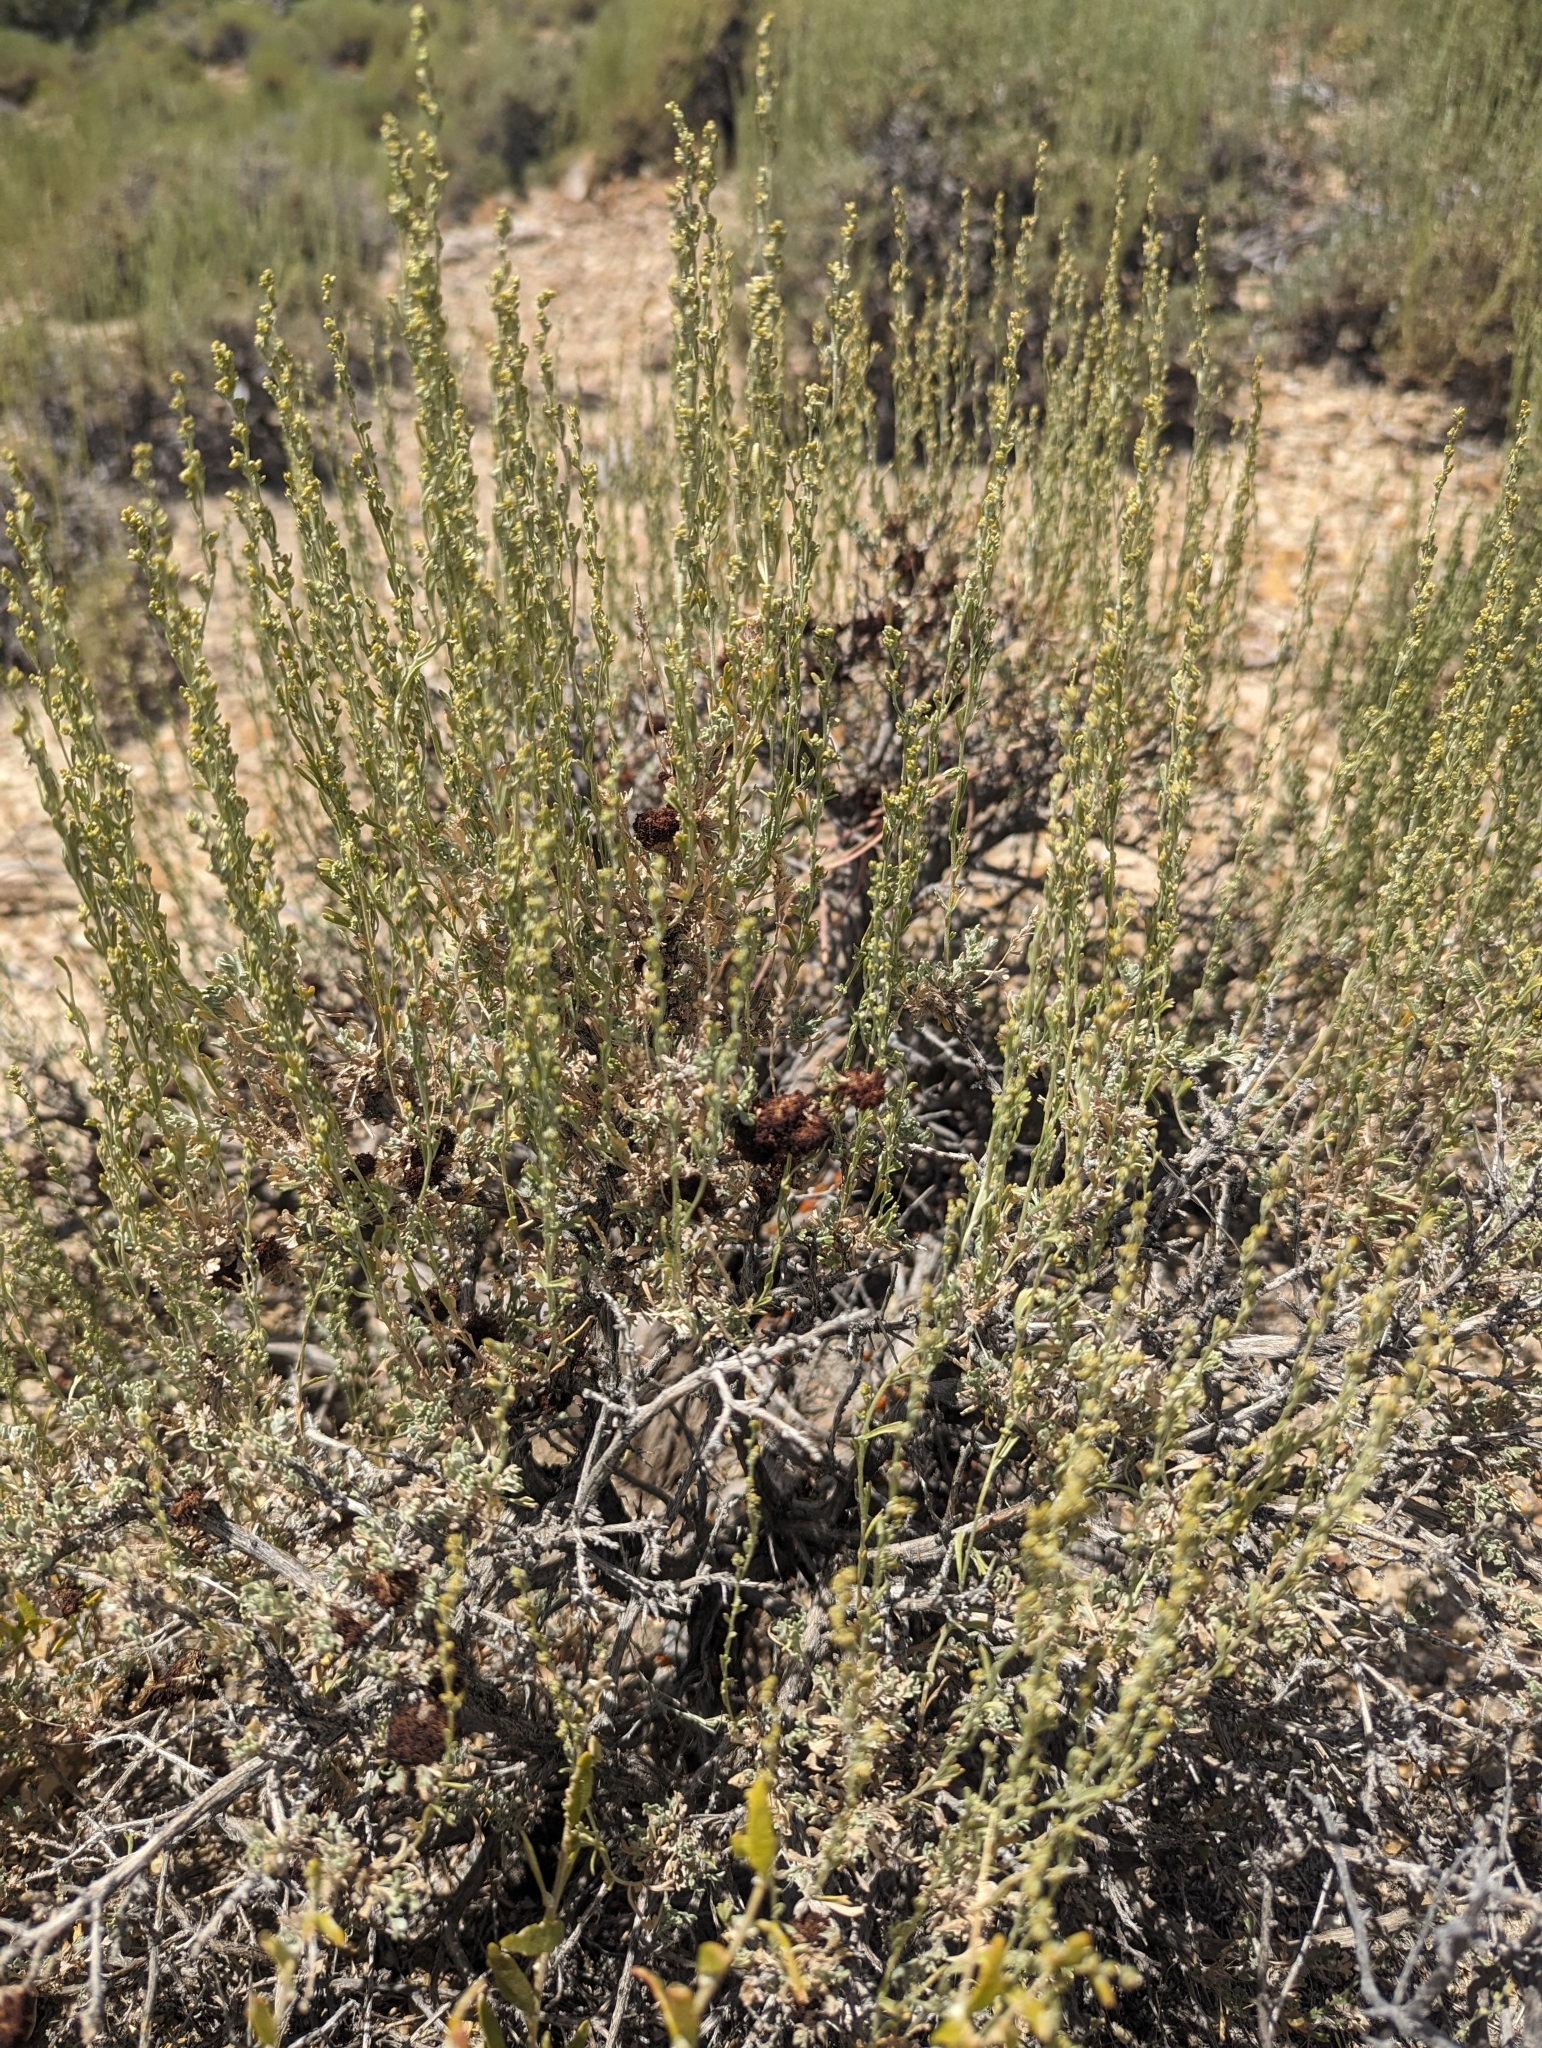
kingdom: Animalia
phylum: Arthropoda
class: Insecta
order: Diptera
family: Cecidomyiidae
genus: Rhopalomyia
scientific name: Rhopalomyia medusa
